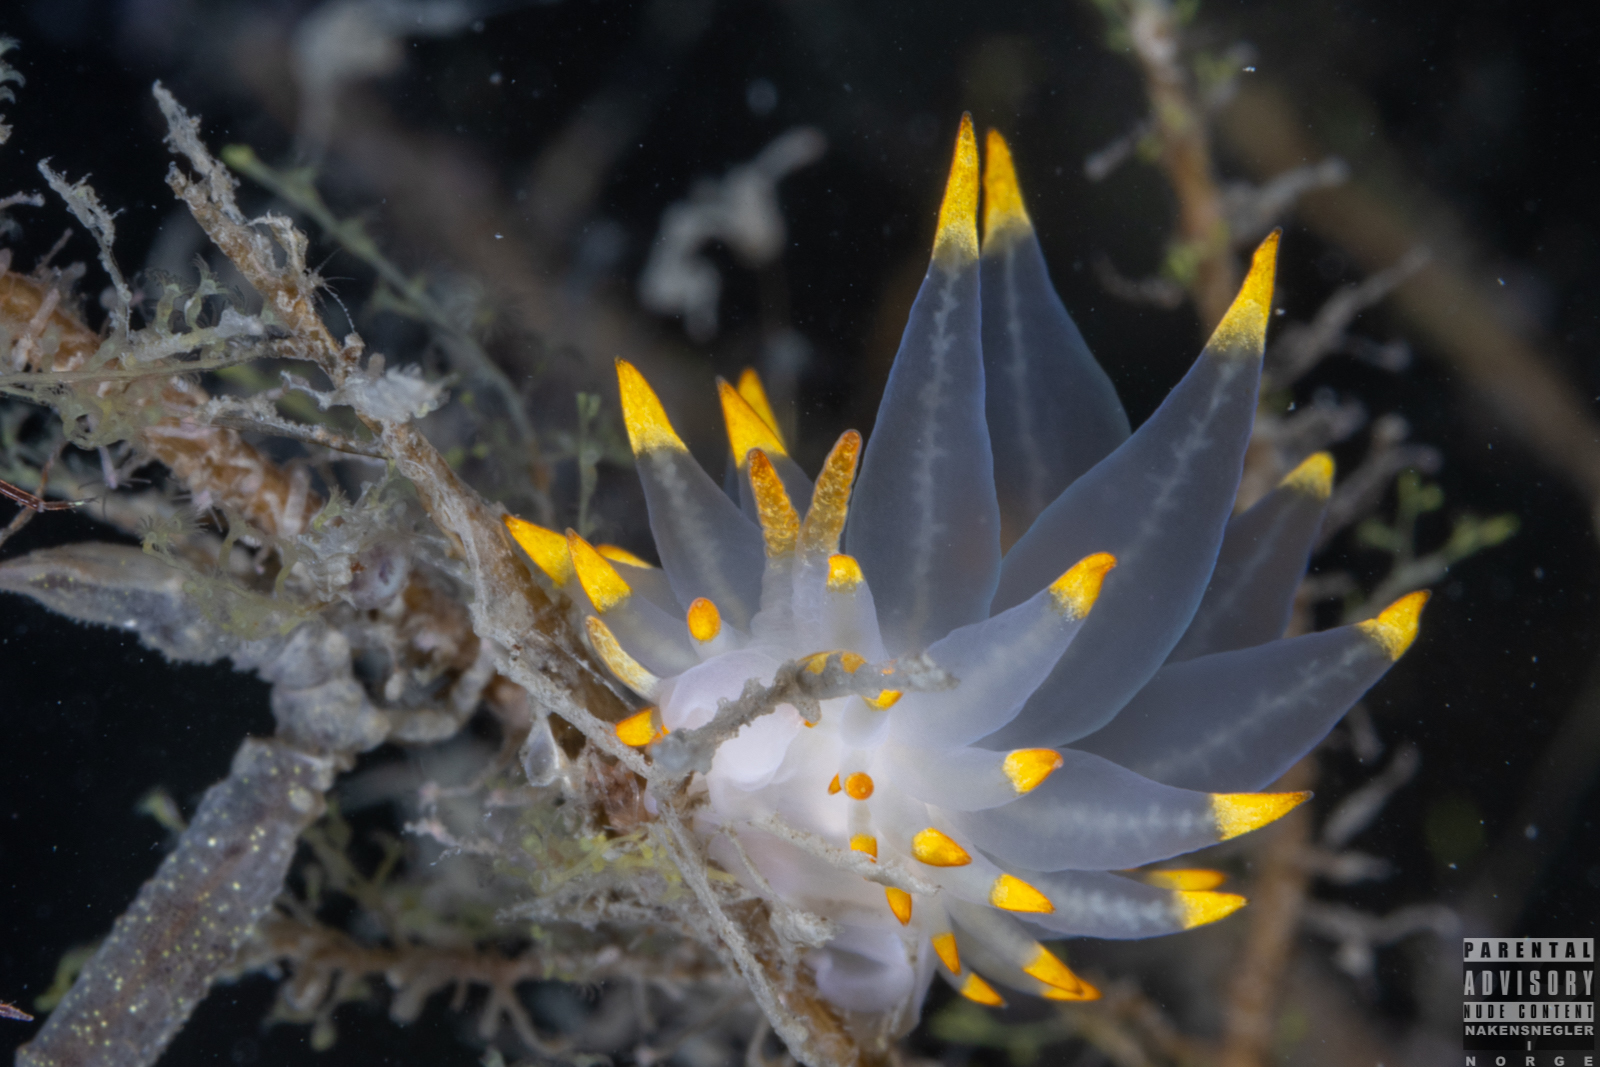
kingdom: Animalia
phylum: Mollusca
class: Gastropoda
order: Nudibranchia
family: Eubranchidae
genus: Amphorina
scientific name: Amphorina farrani
